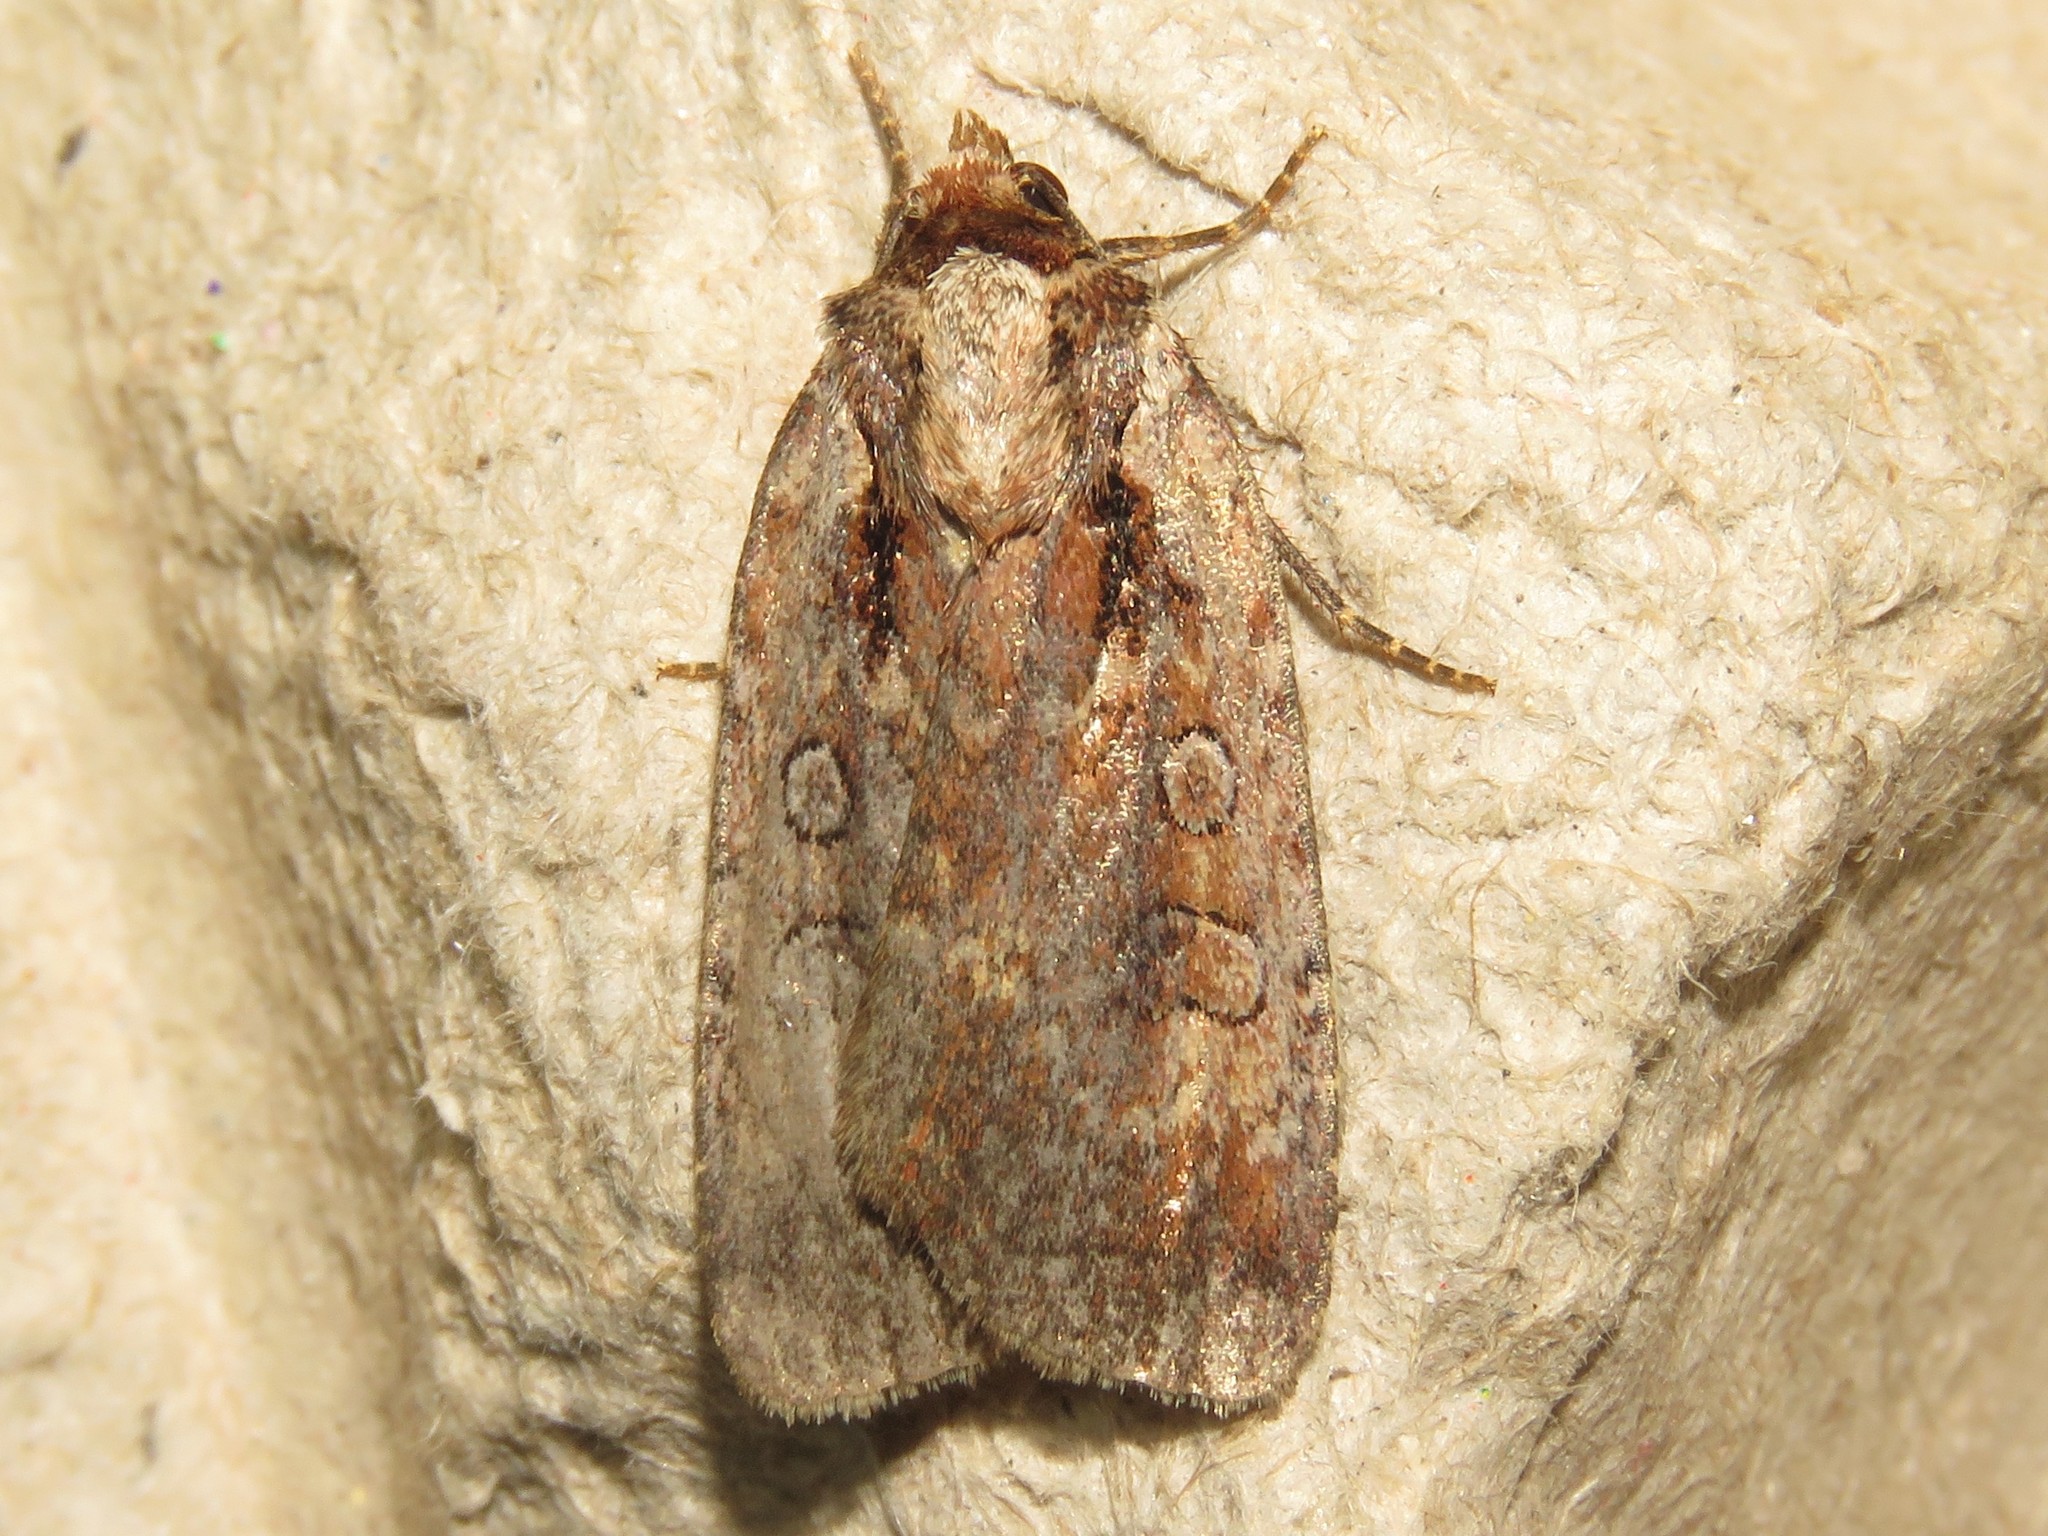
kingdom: Animalia
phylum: Arthropoda
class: Insecta
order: Lepidoptera
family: Noctuidae
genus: Eueretagrotis
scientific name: Eueretagrotis attentus
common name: Attentive dart
